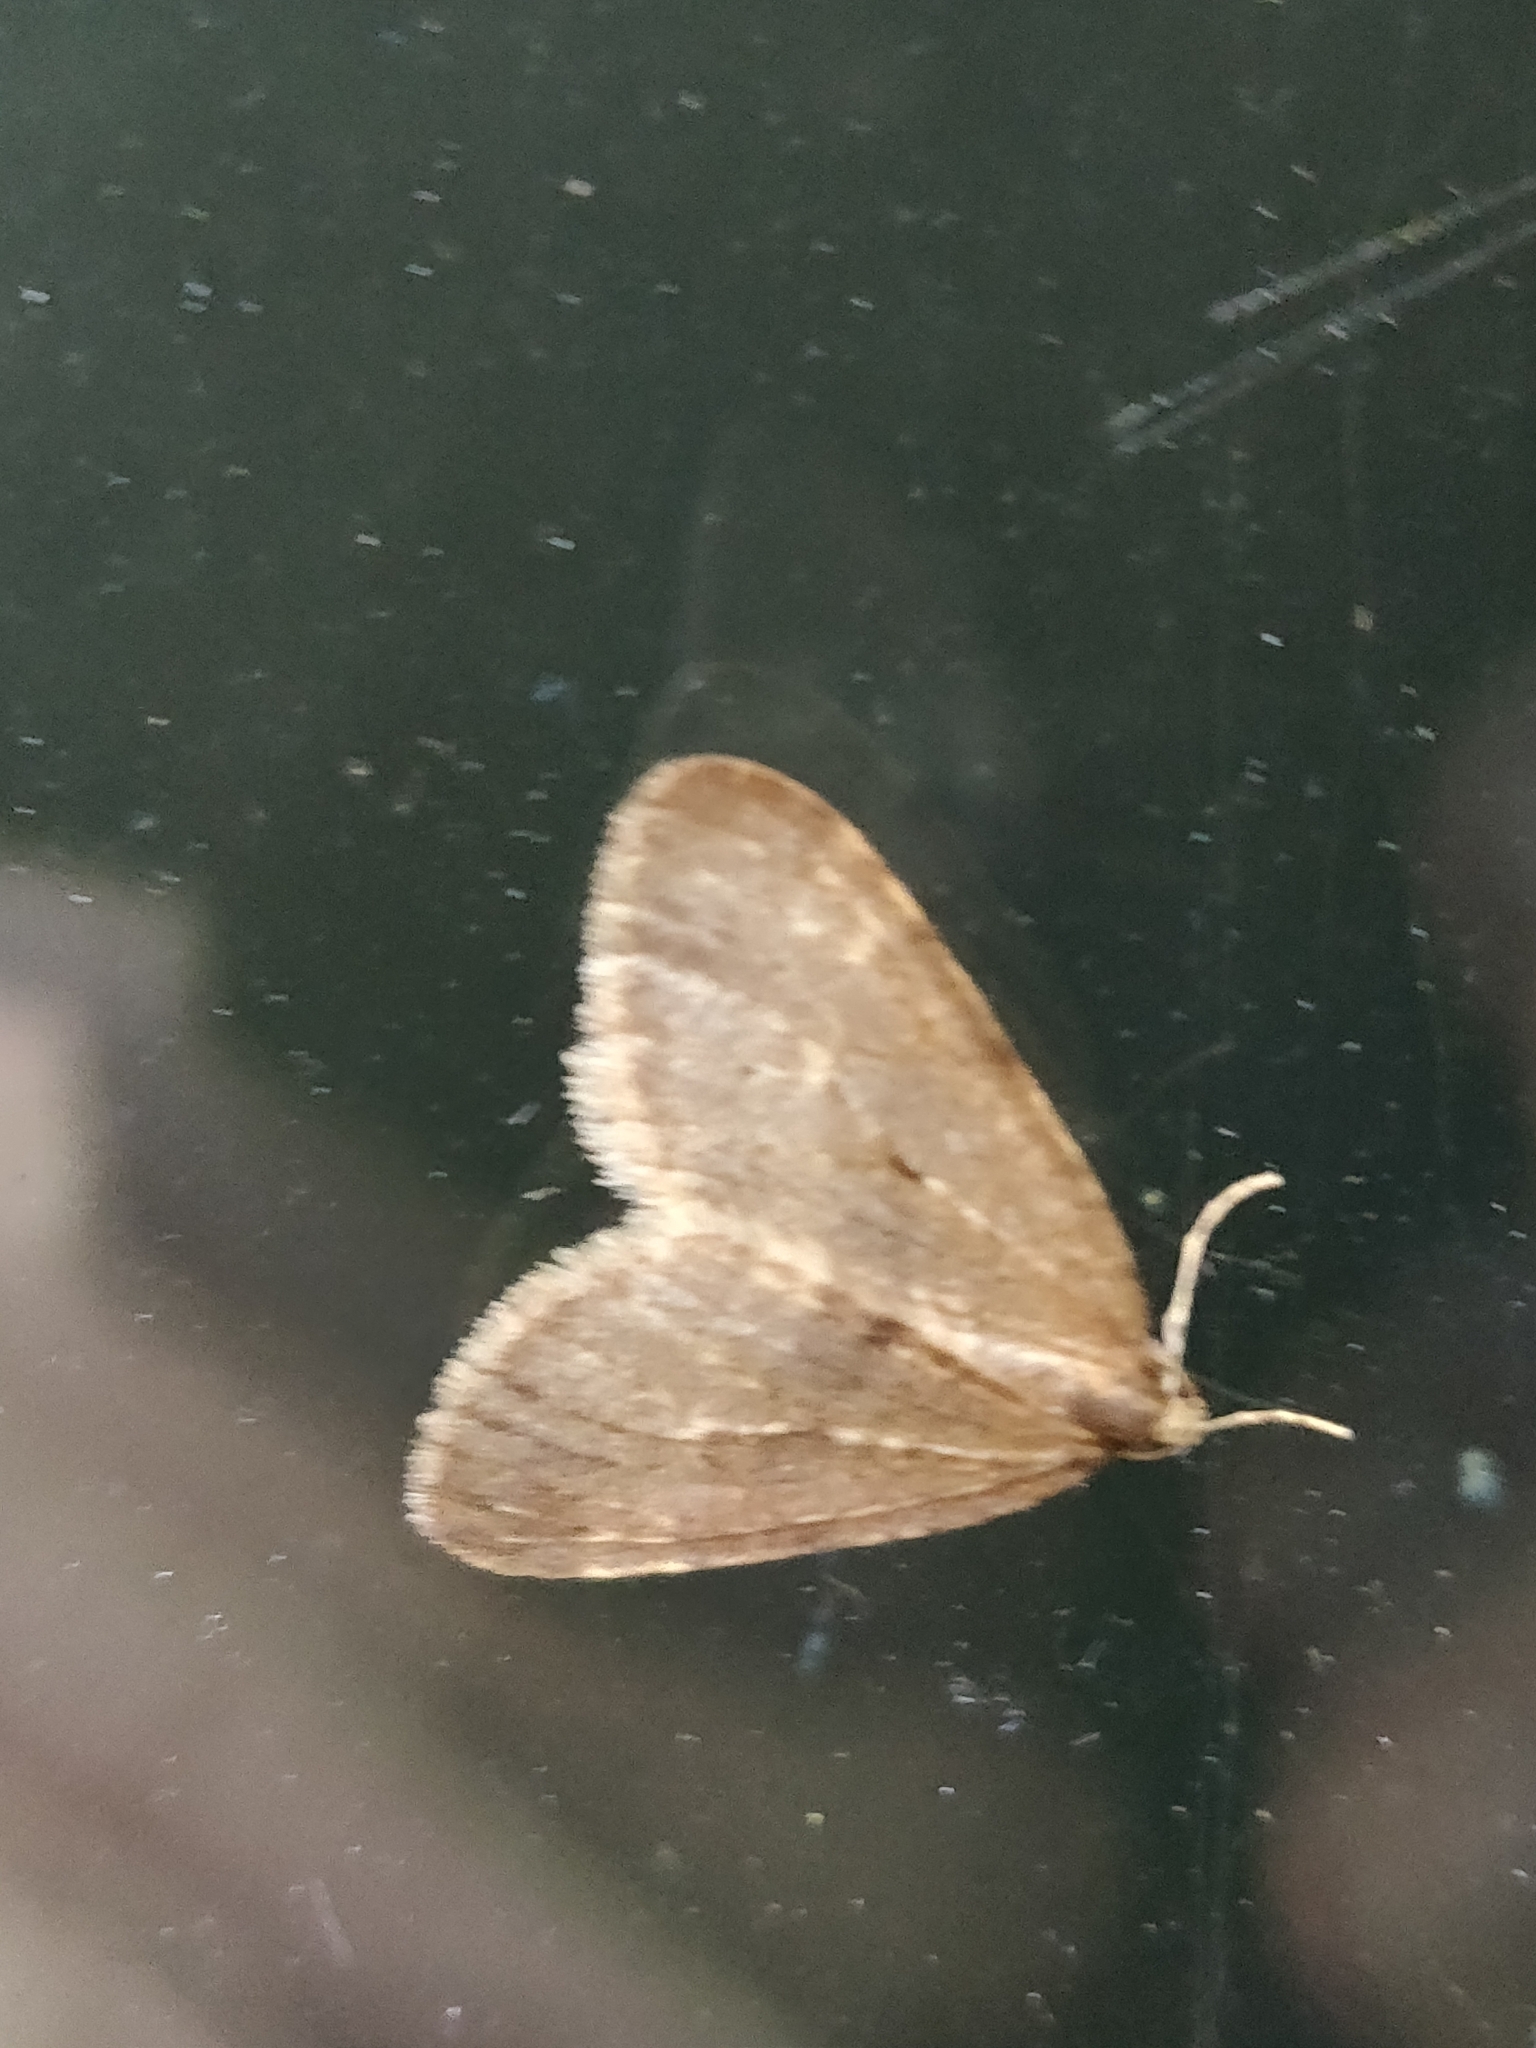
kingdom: Animalia
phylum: Arthropoda
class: Insecta
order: Lepidoptera
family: Geometridae
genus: Operophtera
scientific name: Operophtera brumata
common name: Winter moth
